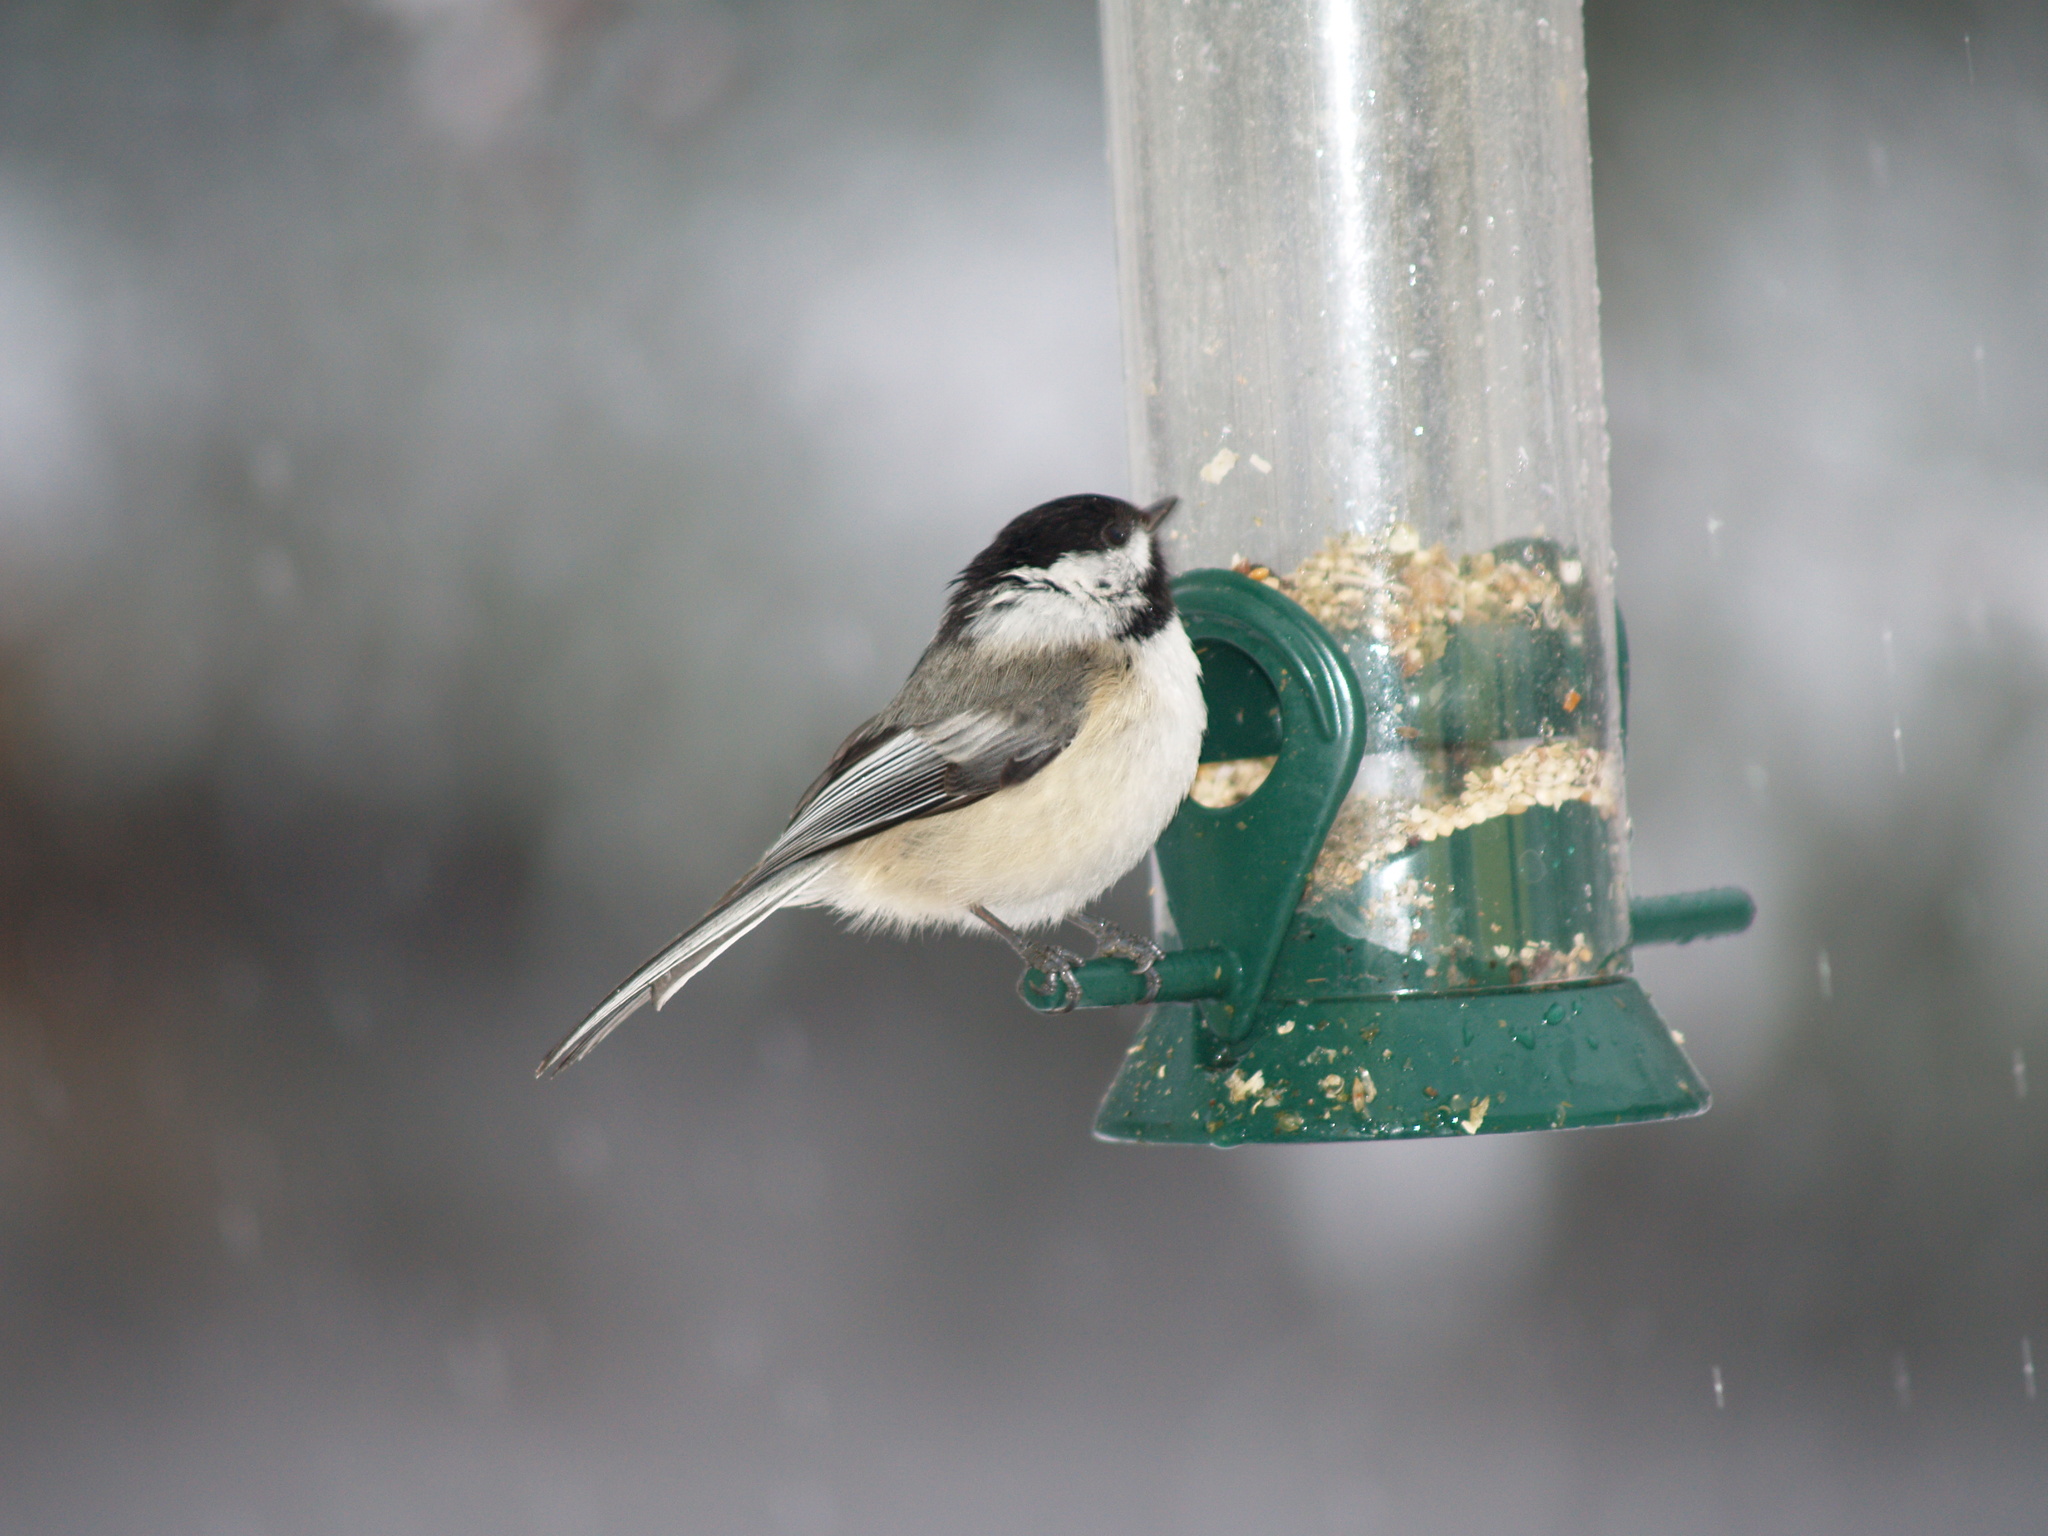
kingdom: Animalia
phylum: Chordata
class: Aves
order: Passeriformes
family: Paridae
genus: Poecile
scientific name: Poecile atricapillus
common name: Black-capped chickadee
